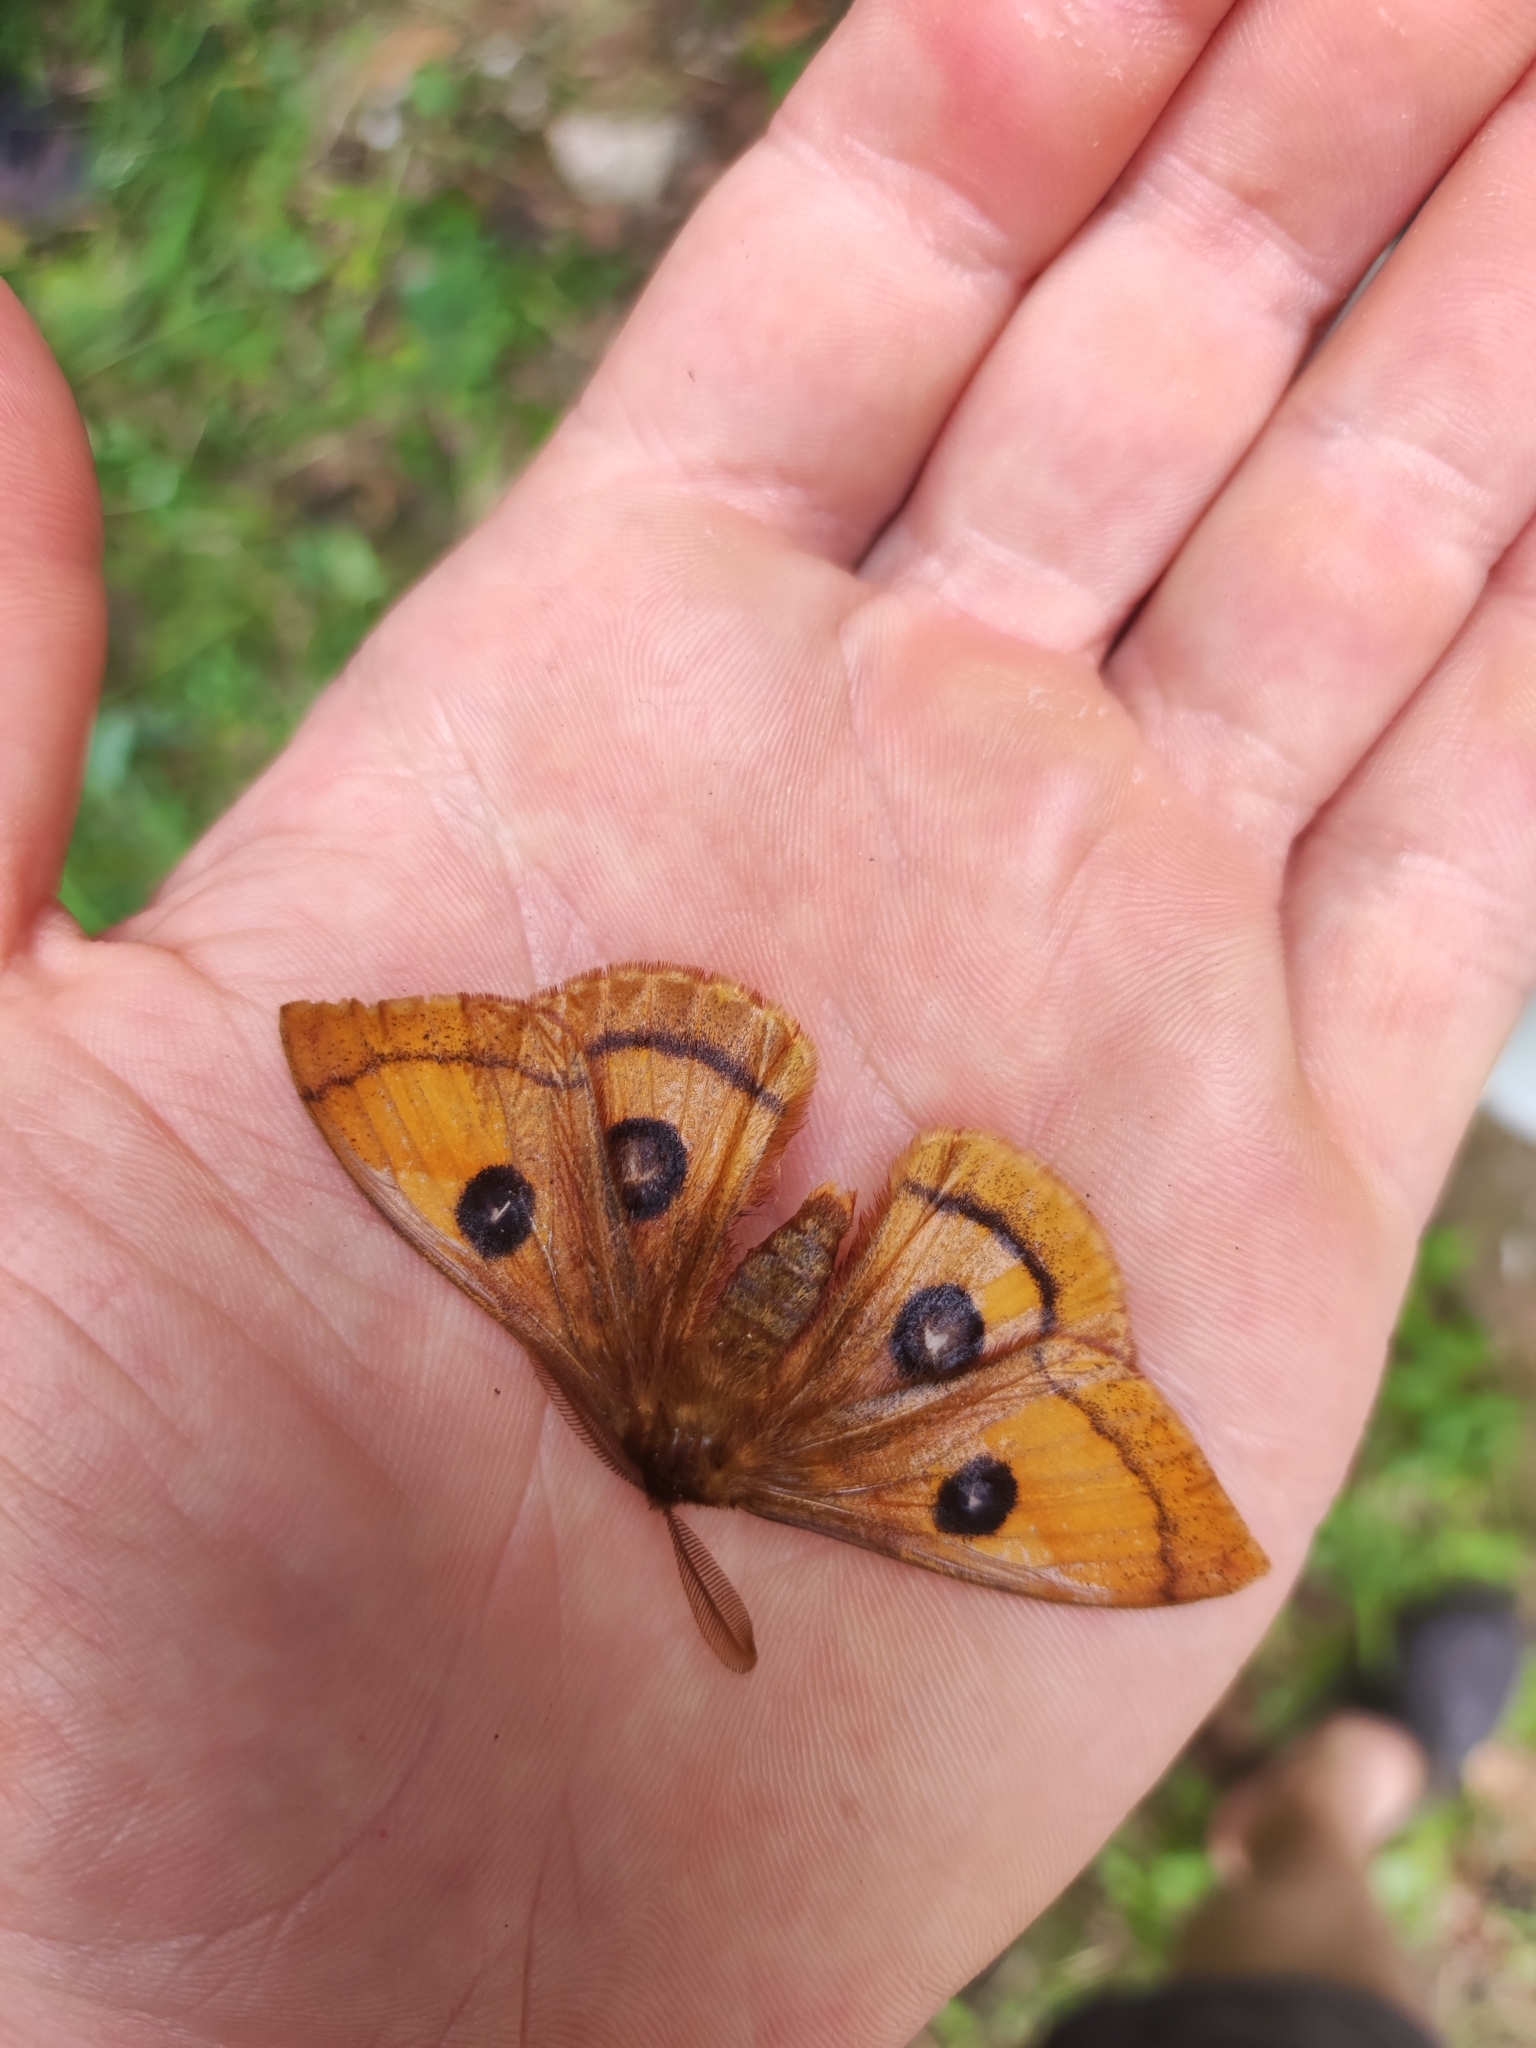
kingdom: Animalia
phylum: Arthropoda
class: Insecta
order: Lepidoptera
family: Saturniidae
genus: Aglia
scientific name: Aglia tau
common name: Tau emperor
